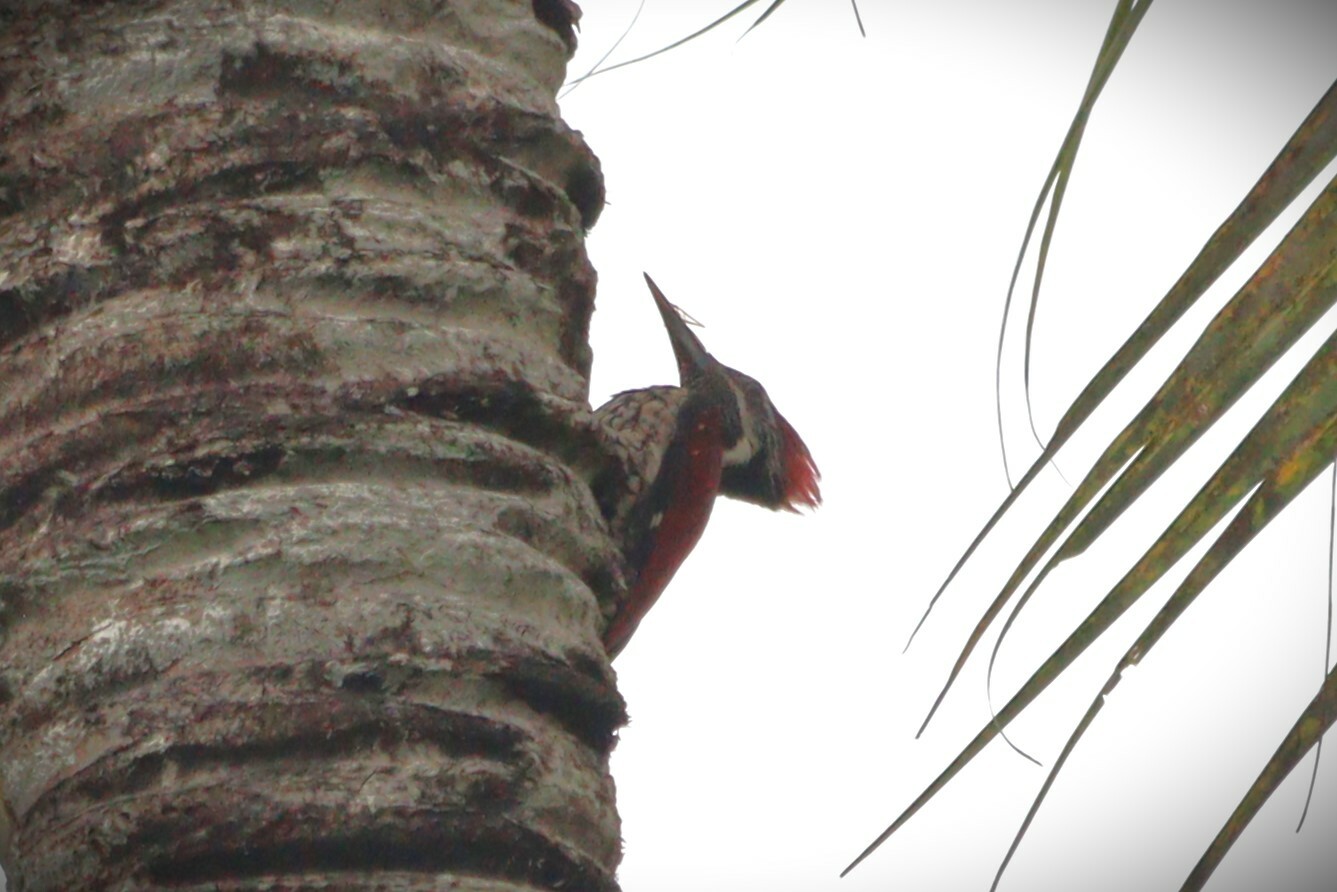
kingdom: Animalia
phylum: Chordata
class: Aves
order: Piciformes
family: Picidae
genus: Dinopium
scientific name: Dinopium psarodes
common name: Red-backed flameback
